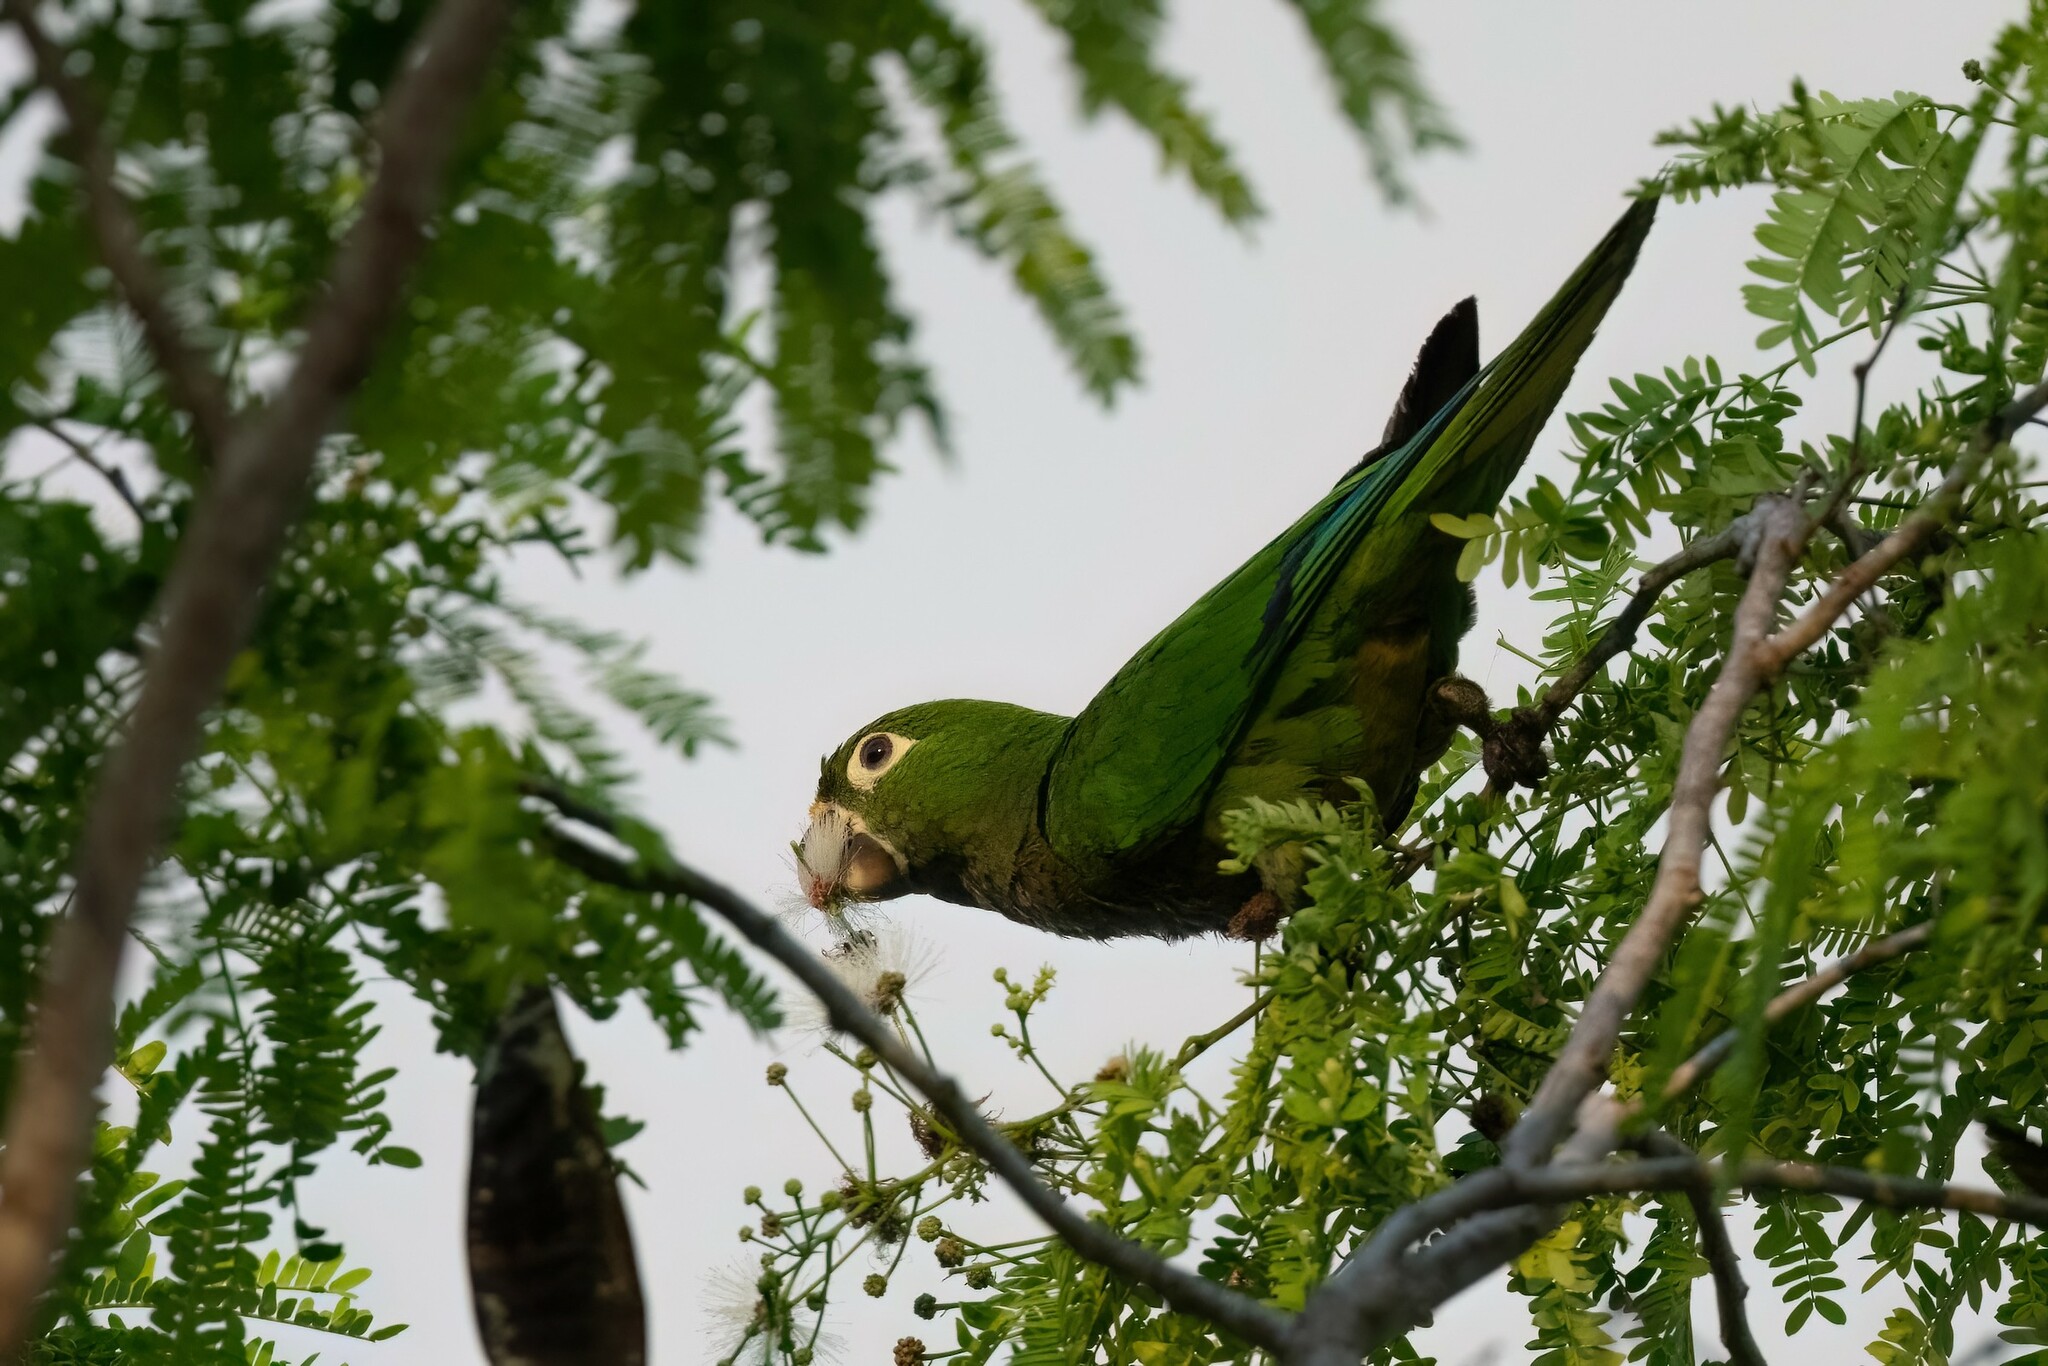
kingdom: Animalia
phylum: Chordata
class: Aves
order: Psittaciformes
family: Psittacidae
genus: Aratinga
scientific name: Aratinga nana
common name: Olive-throated parakeet
